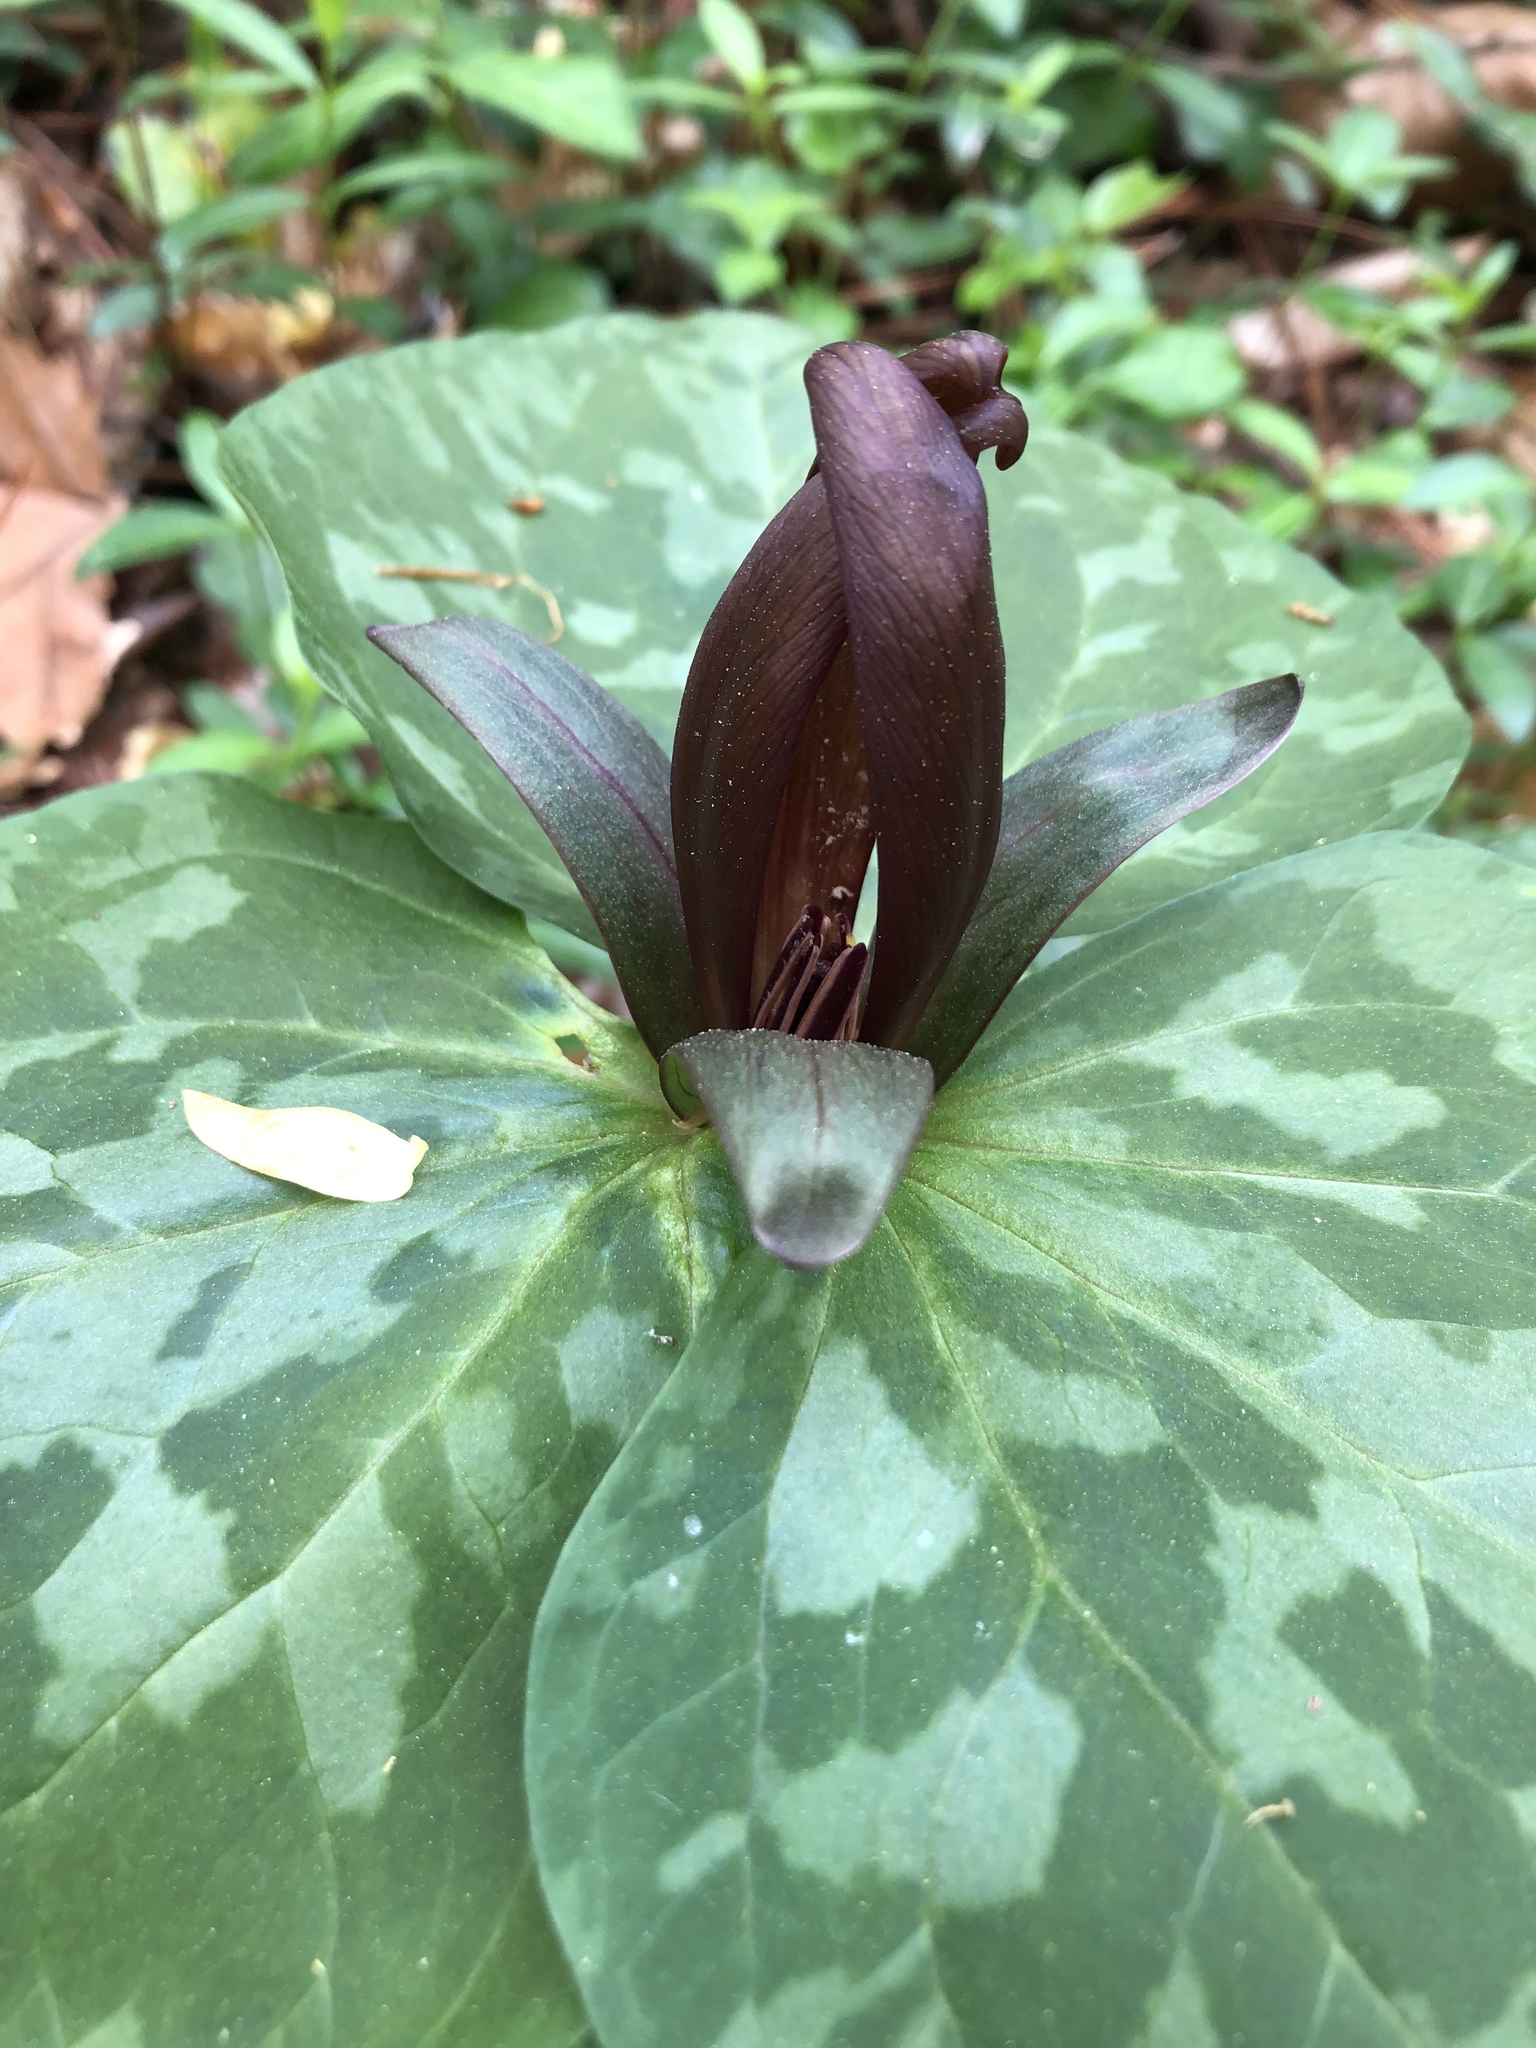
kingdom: Plantae
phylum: Tracheophyta
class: Liliopsida
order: Liliales
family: Melanthiaceae
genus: Trillium
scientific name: Trillium cuneatum
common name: Cuneate trillium
